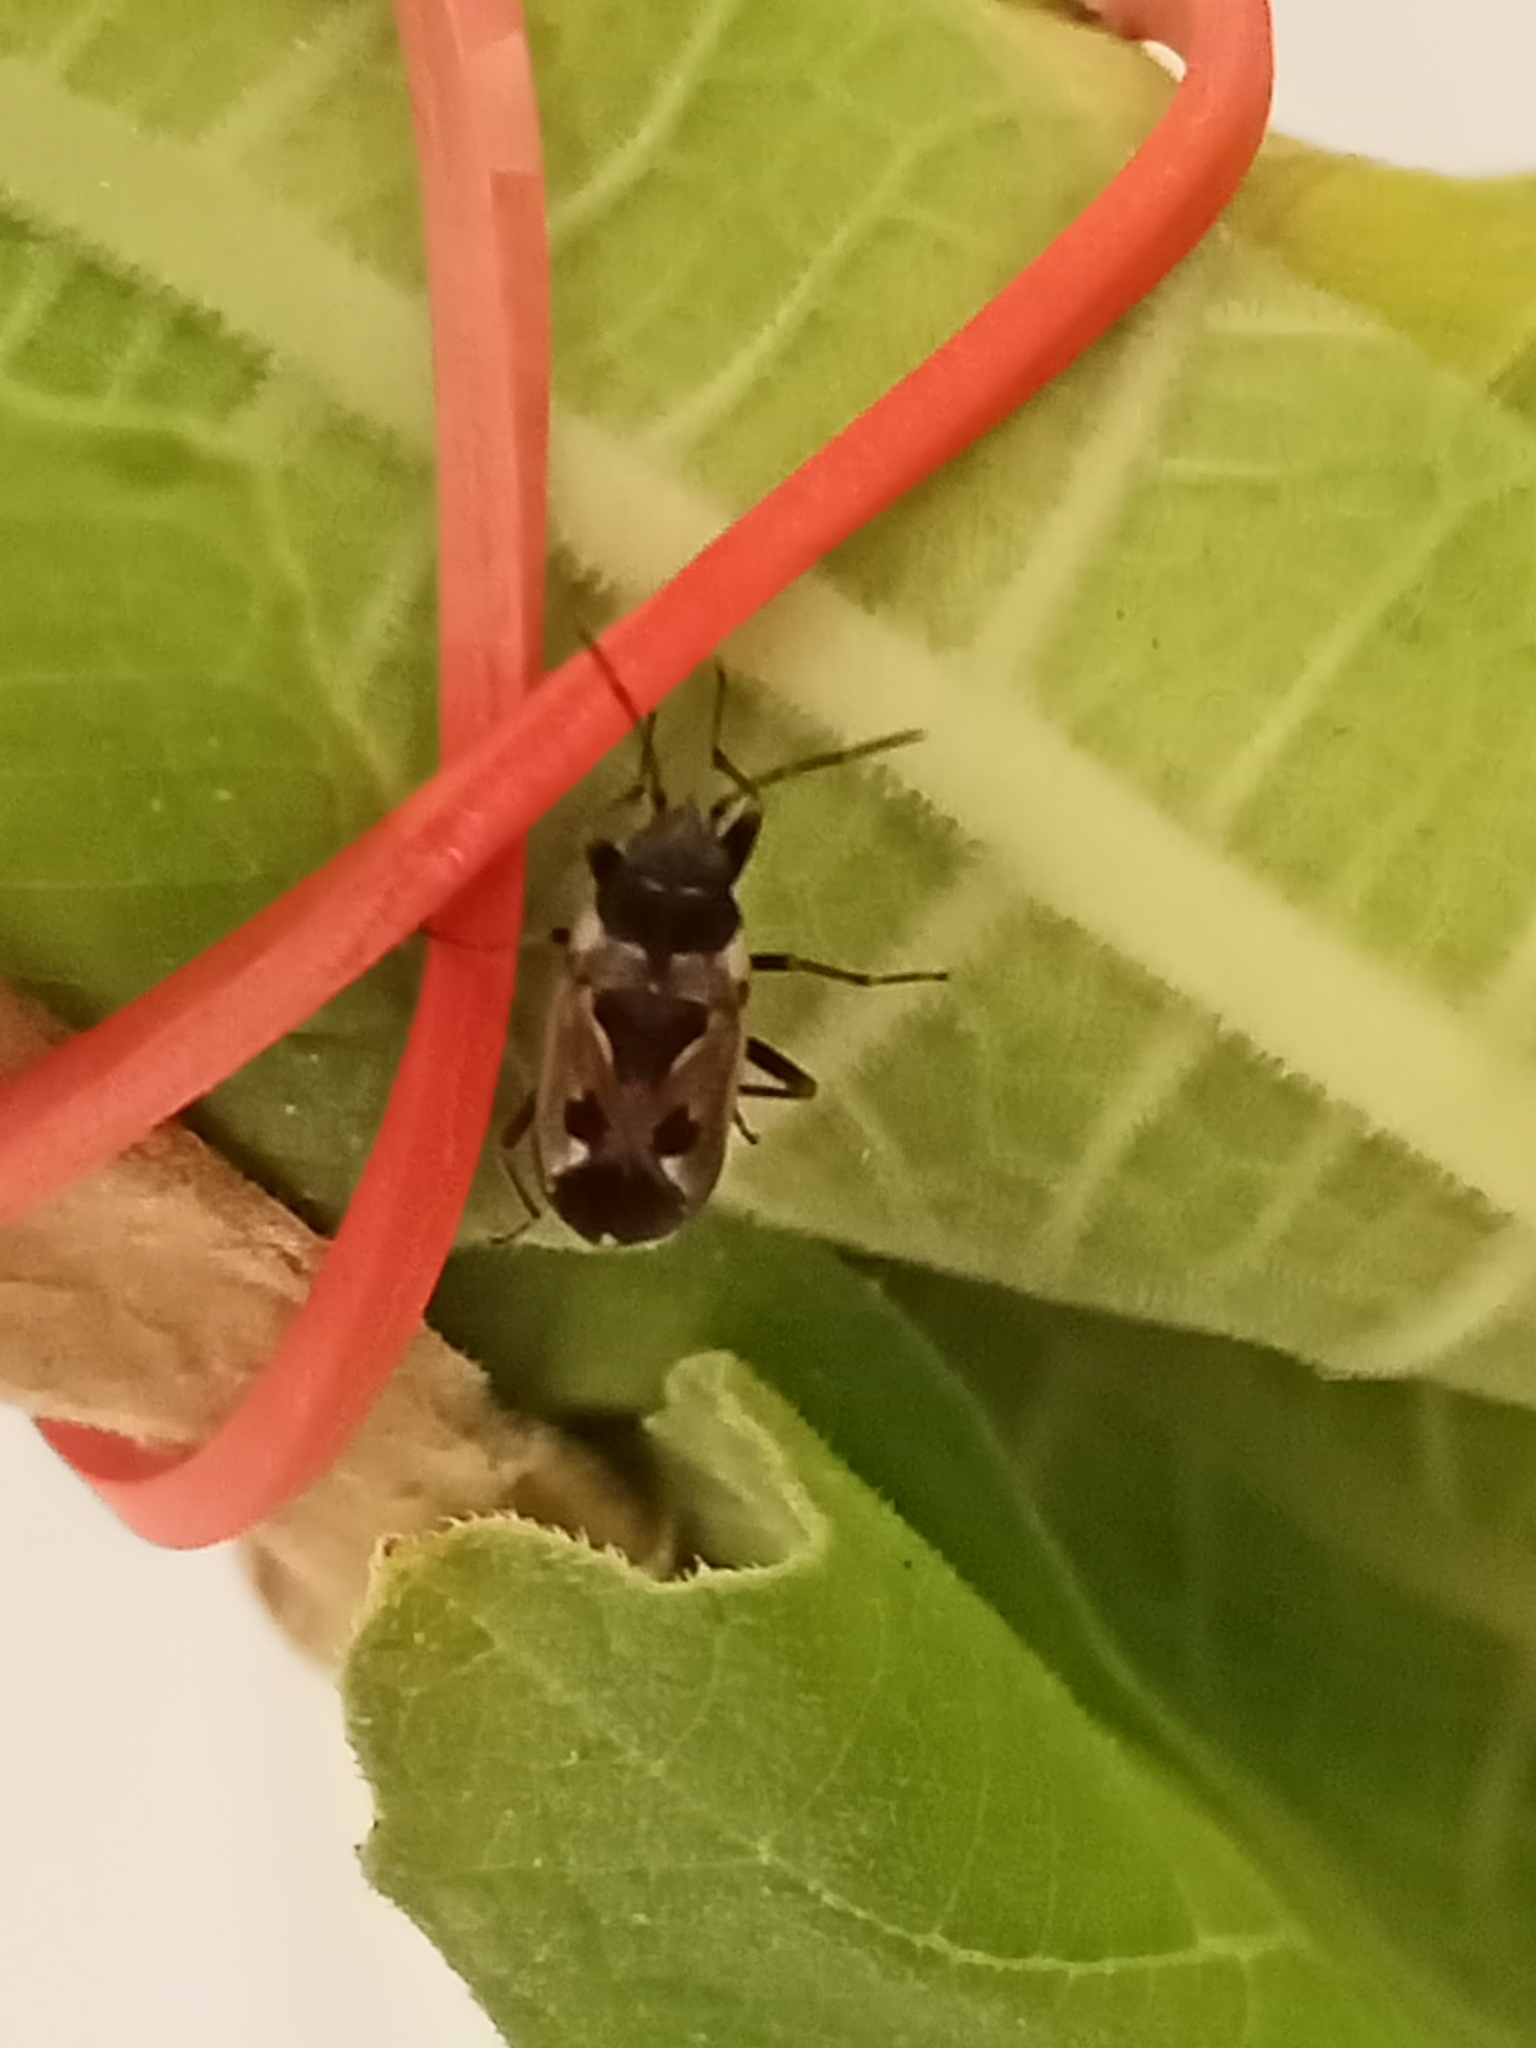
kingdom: Animalia
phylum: Arthropoda
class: Insecta
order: Hemiptera
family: Rhyparochromidae
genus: Rhyparochromus
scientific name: Rhyparochromus vulgaris
